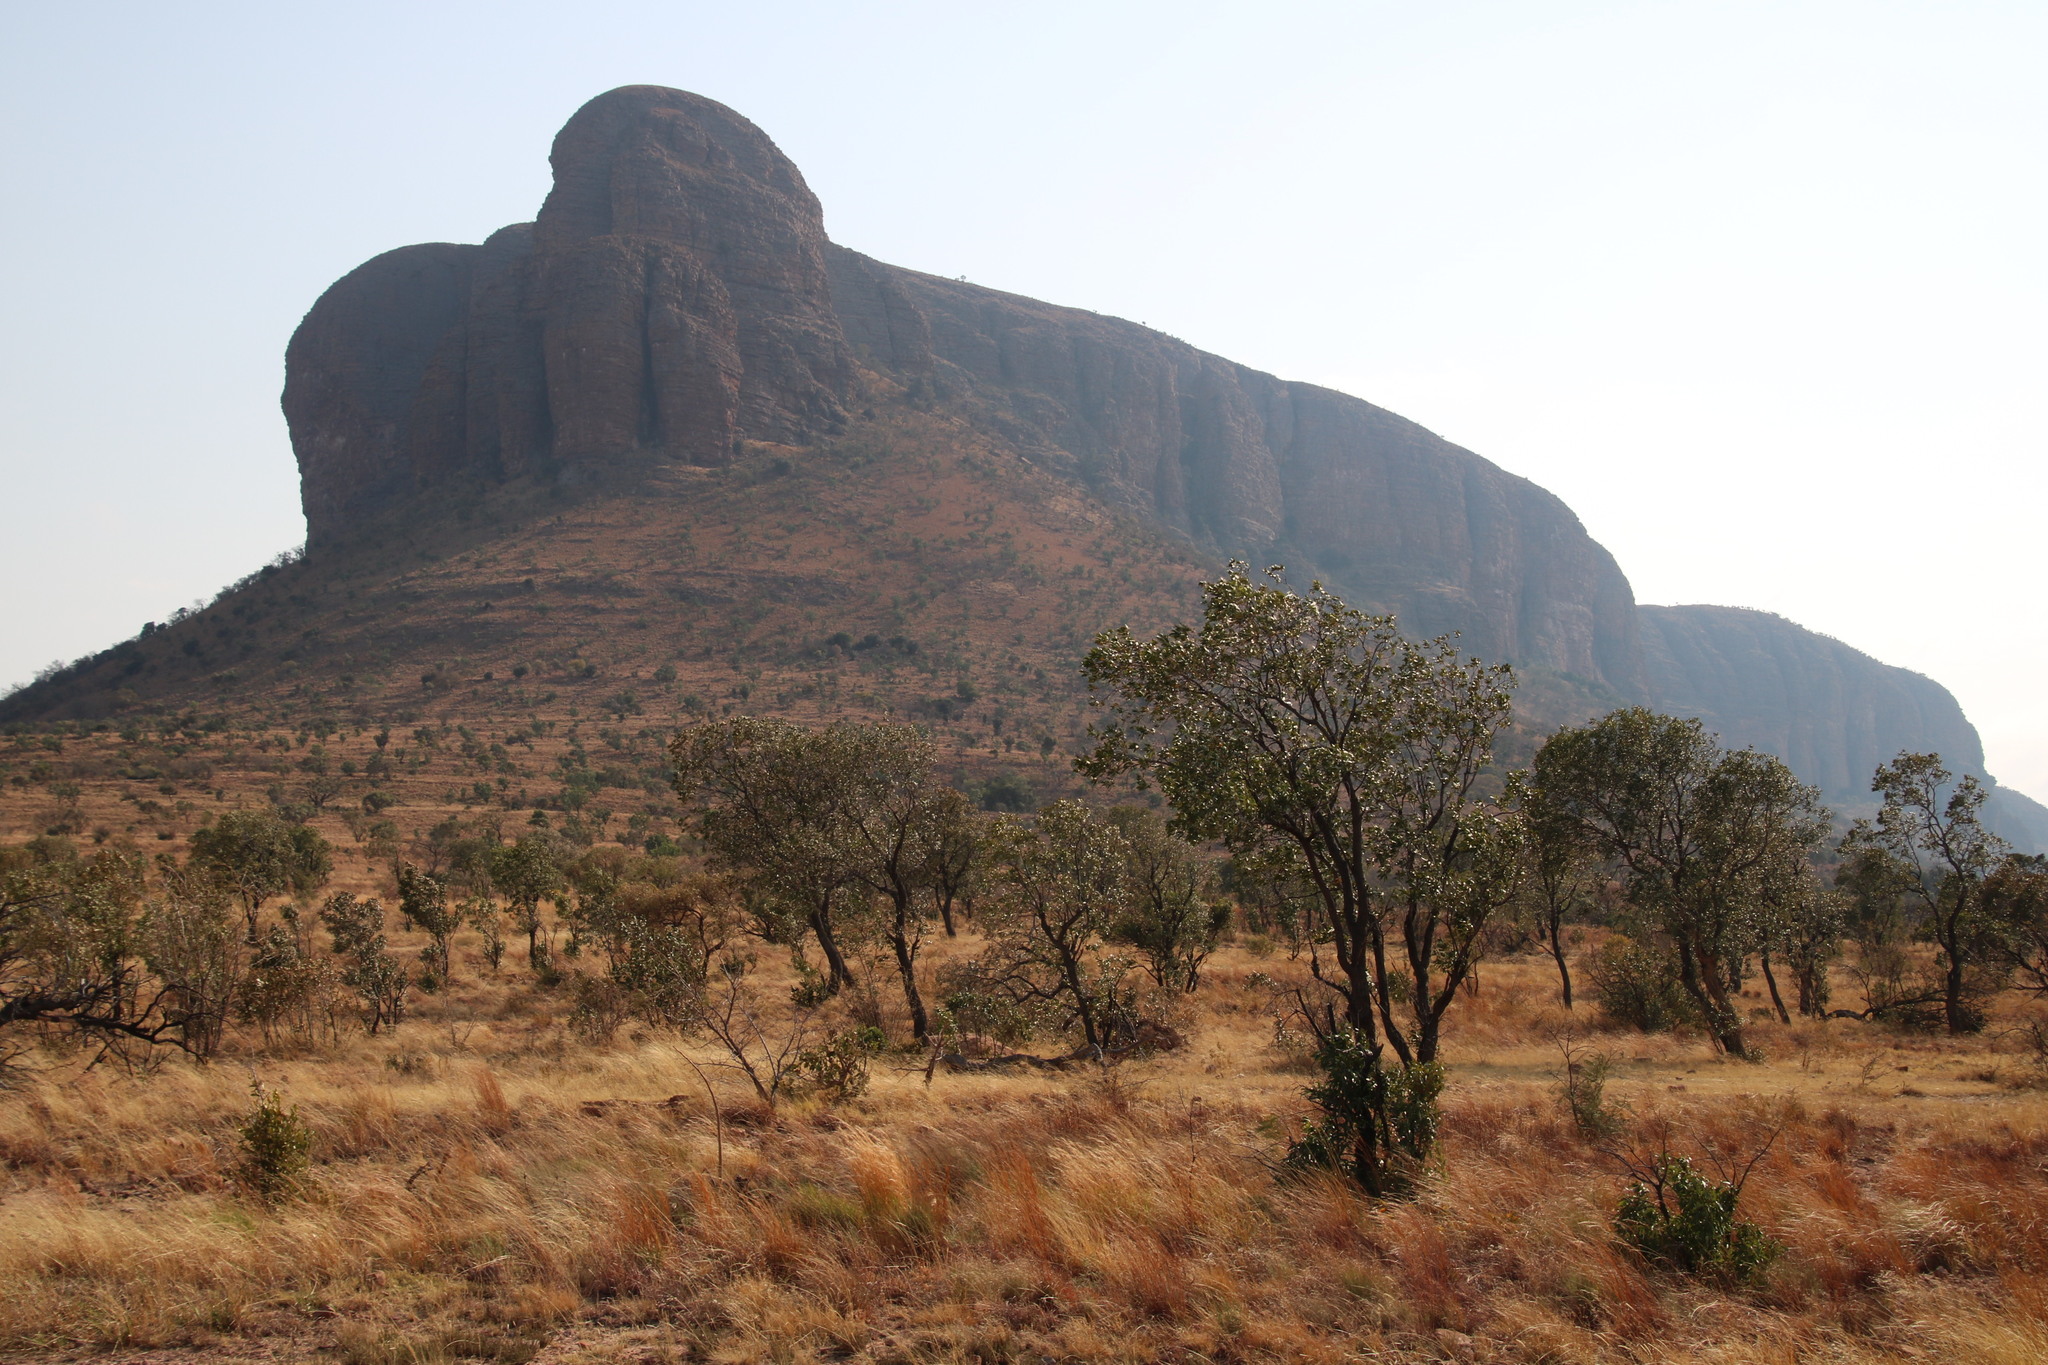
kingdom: Plantae
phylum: Tracheophyta
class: Magnoliopsida
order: Proteales
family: Proteaceae
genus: Faurea
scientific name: Faurea saligna
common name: African bean
